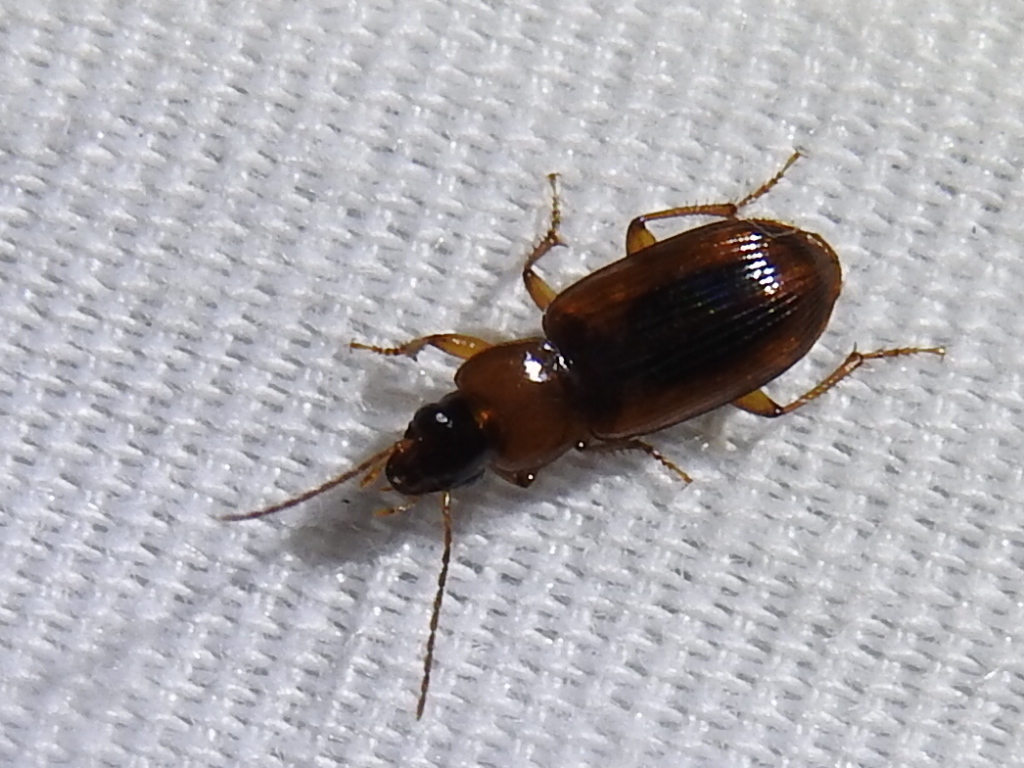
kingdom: Animalia
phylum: Arthropoda
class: Insecta
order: Coleoptera
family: Carabidae
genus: Stenolophus
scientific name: Stenolophus dissimilis
